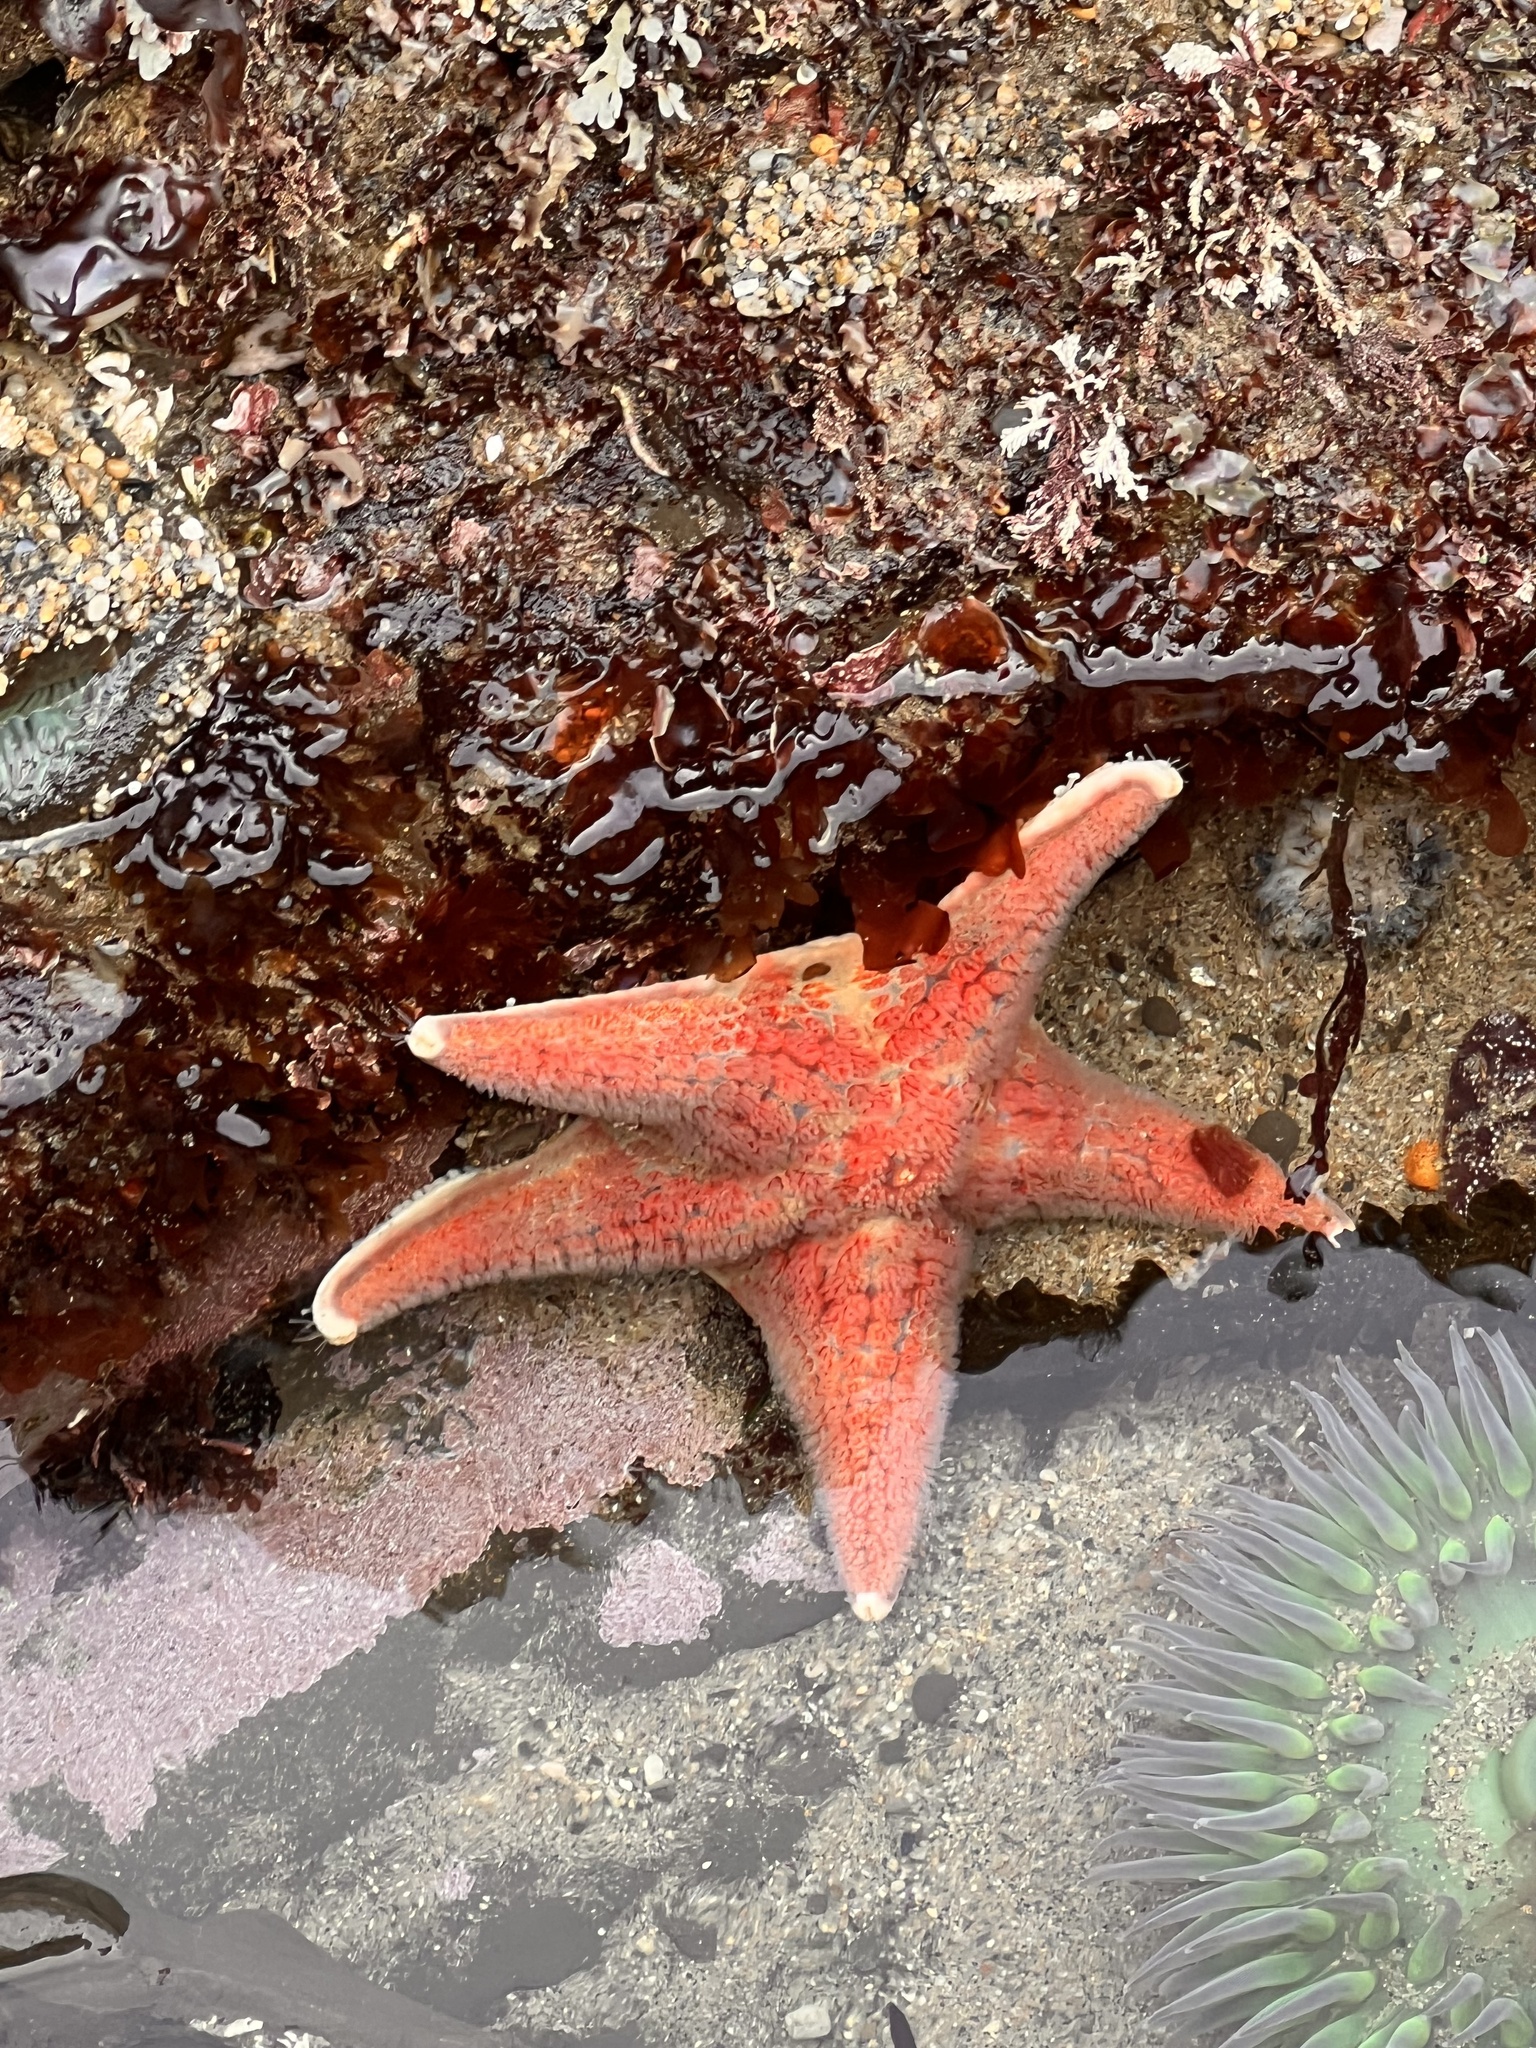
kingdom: Animalia
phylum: Echinodermata
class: Asteroidea
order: Valvatida
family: Asteropseidae
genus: Dermasterias
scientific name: Dermasterias imbricata
